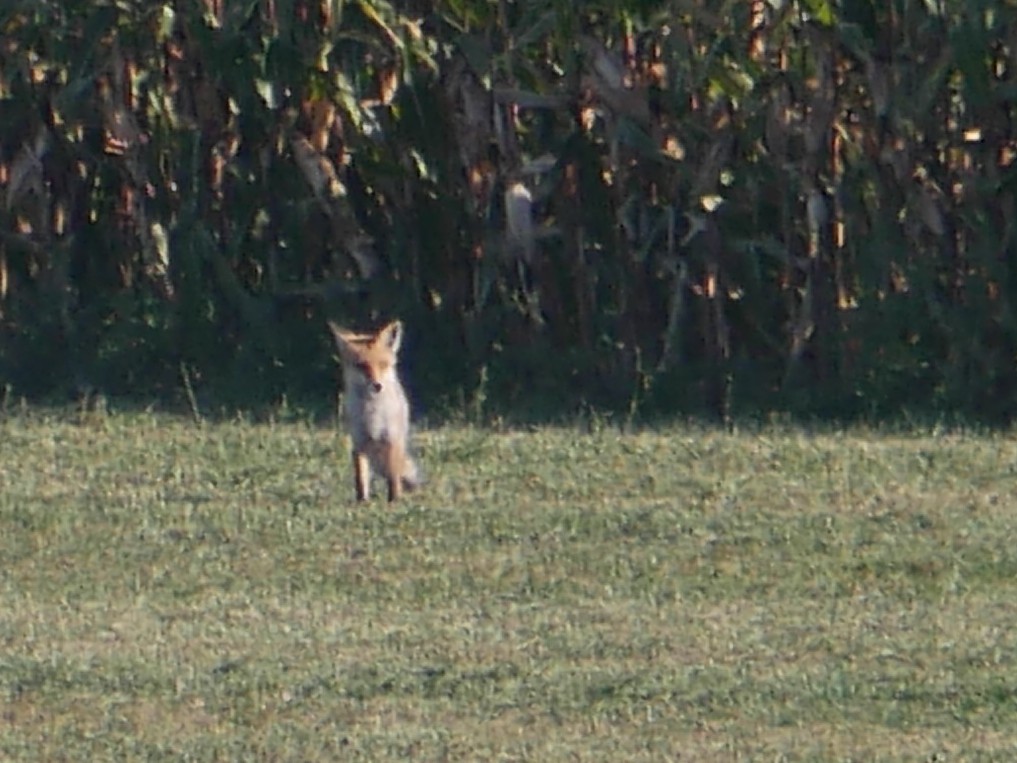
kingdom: Animalia
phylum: Chordata
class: Mammalia
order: Carnivora
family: Canidae
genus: Vulpes
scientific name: Vulpes vulpes
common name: Red fox
